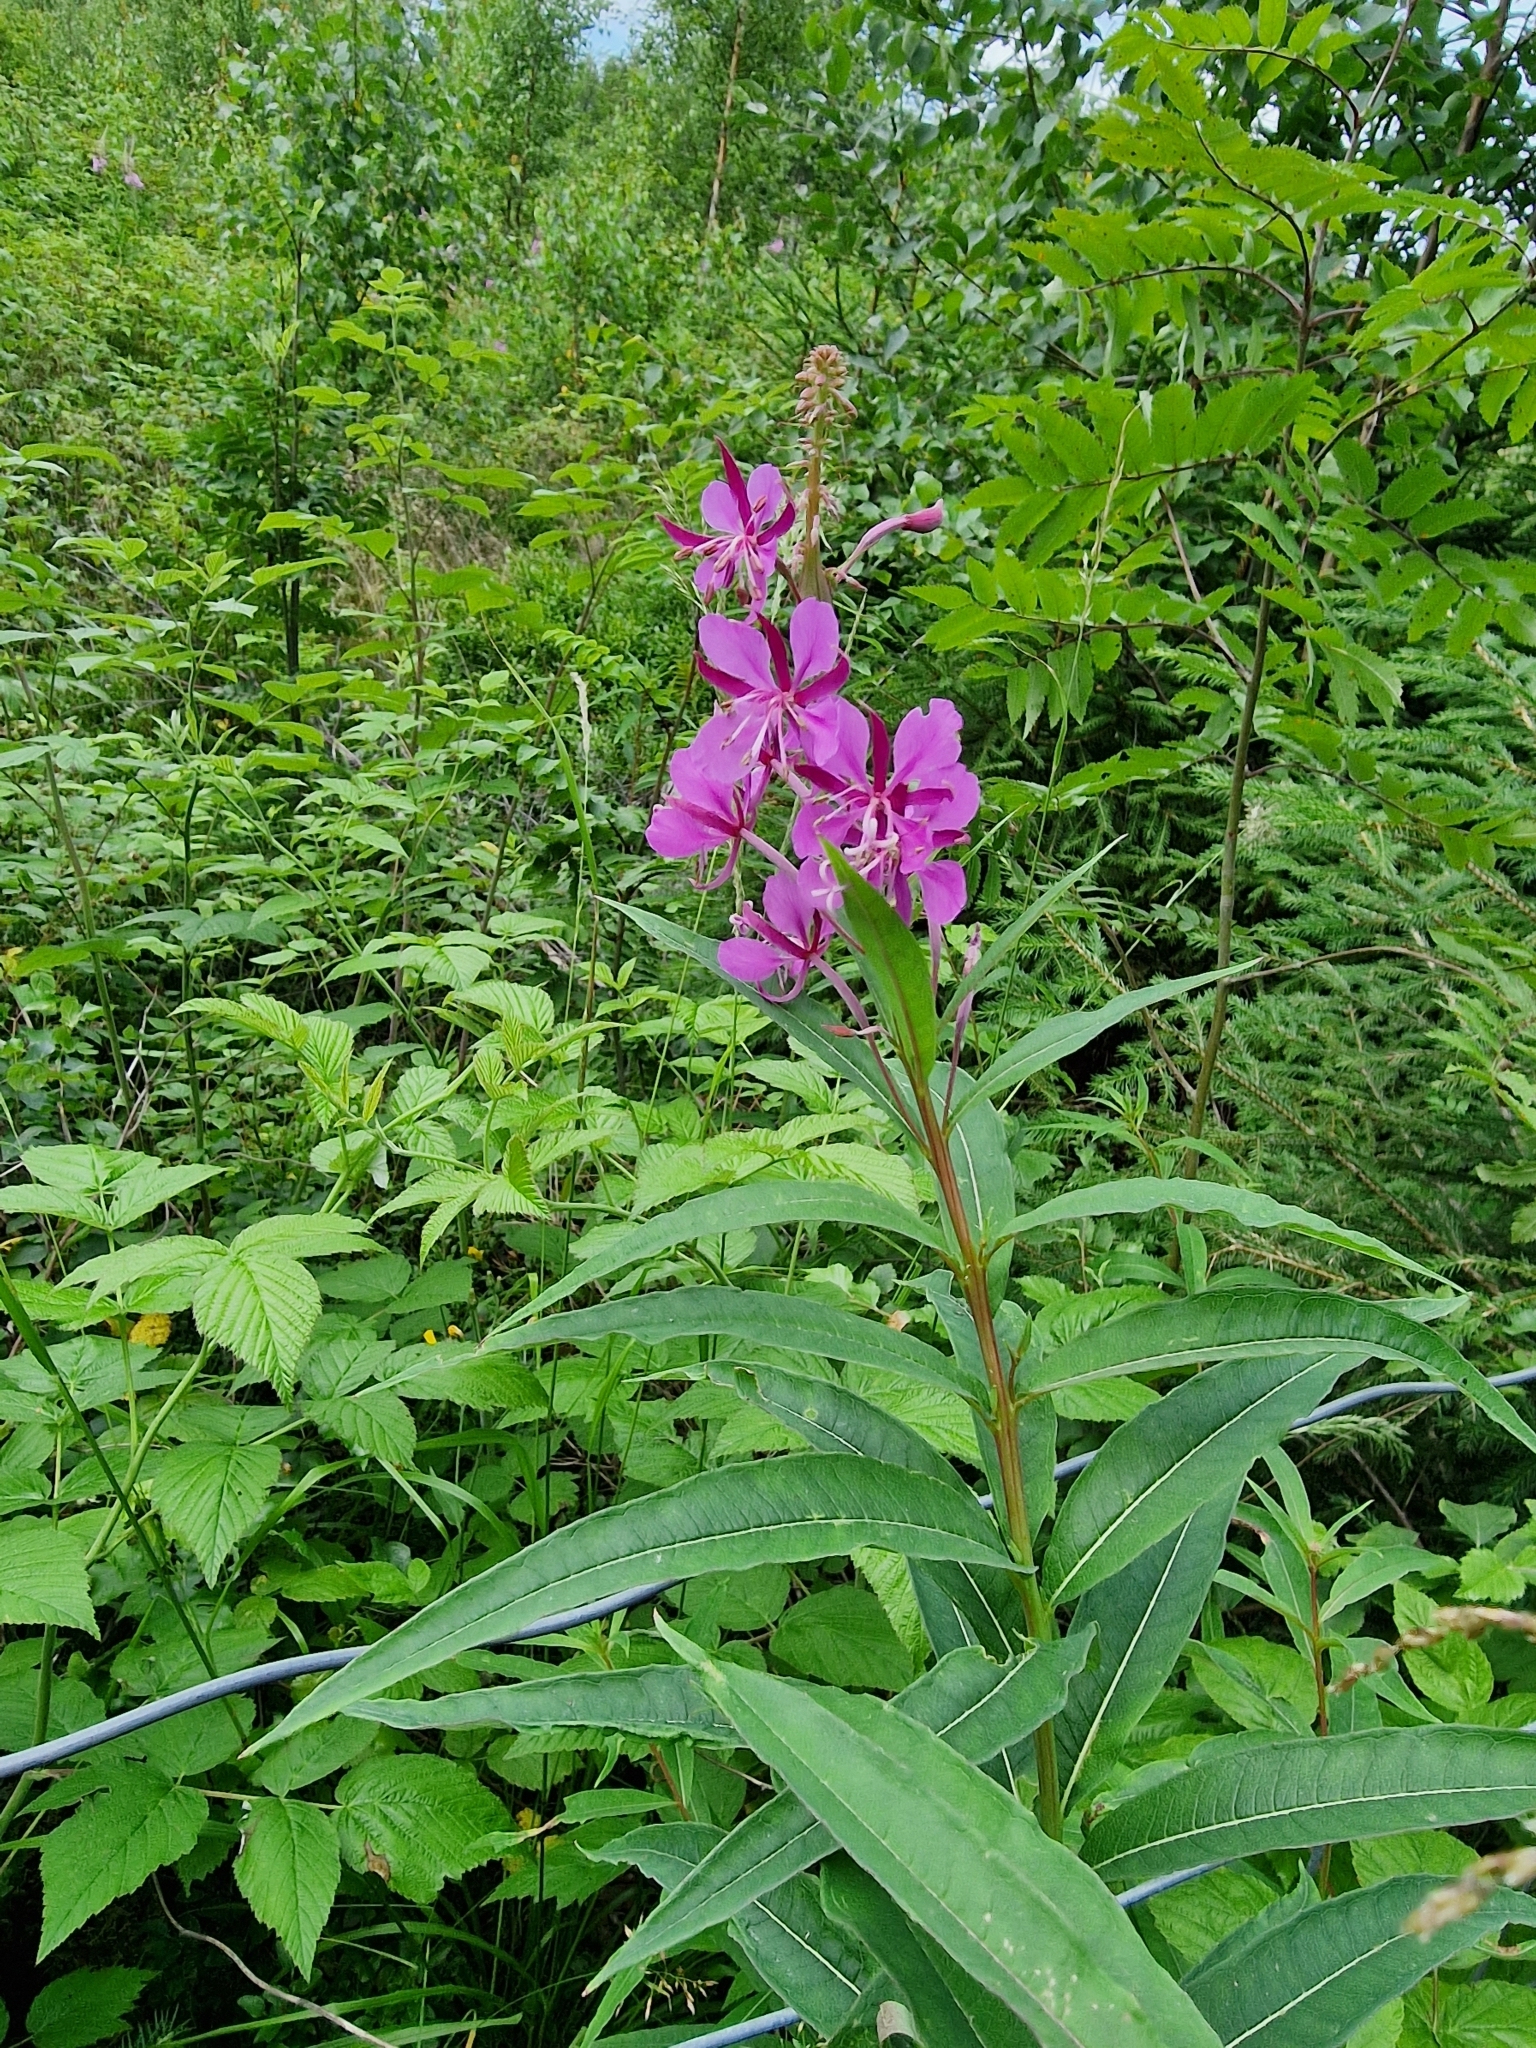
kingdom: Plantae
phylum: Tracheophyta
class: Magnoliopsida
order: Myrtales
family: Onagraceae
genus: Chamaenerion
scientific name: Chamaenerion angustifolium
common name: Fireweed
